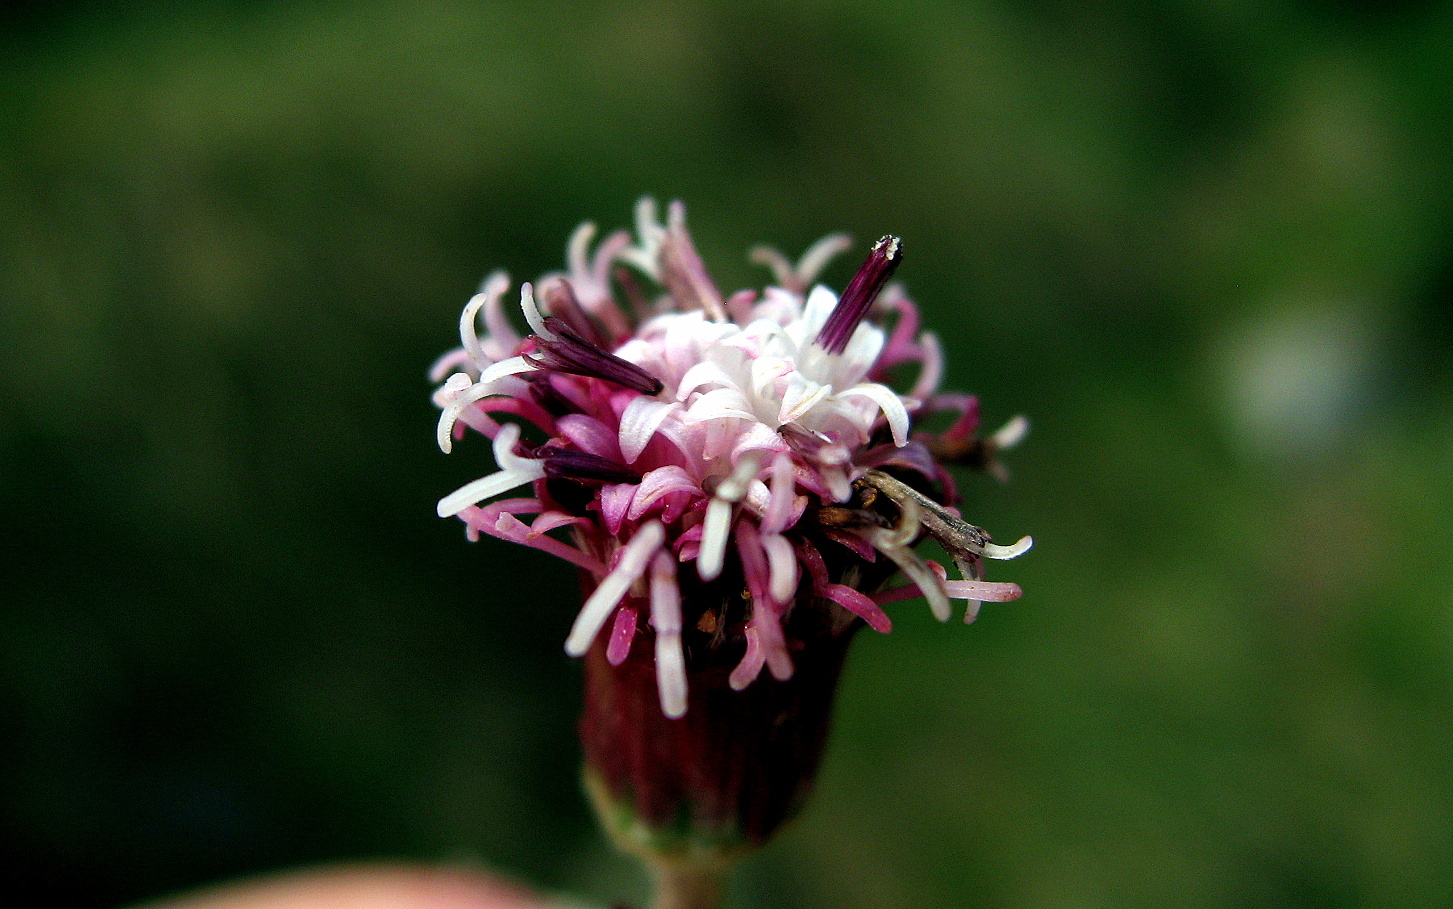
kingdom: Plantae
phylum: Tracheophyta
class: Magnoliopsida
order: Asterales
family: Asteraceae
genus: Homogyne
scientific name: Homogyne alpina
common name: Purple colt's-foot
